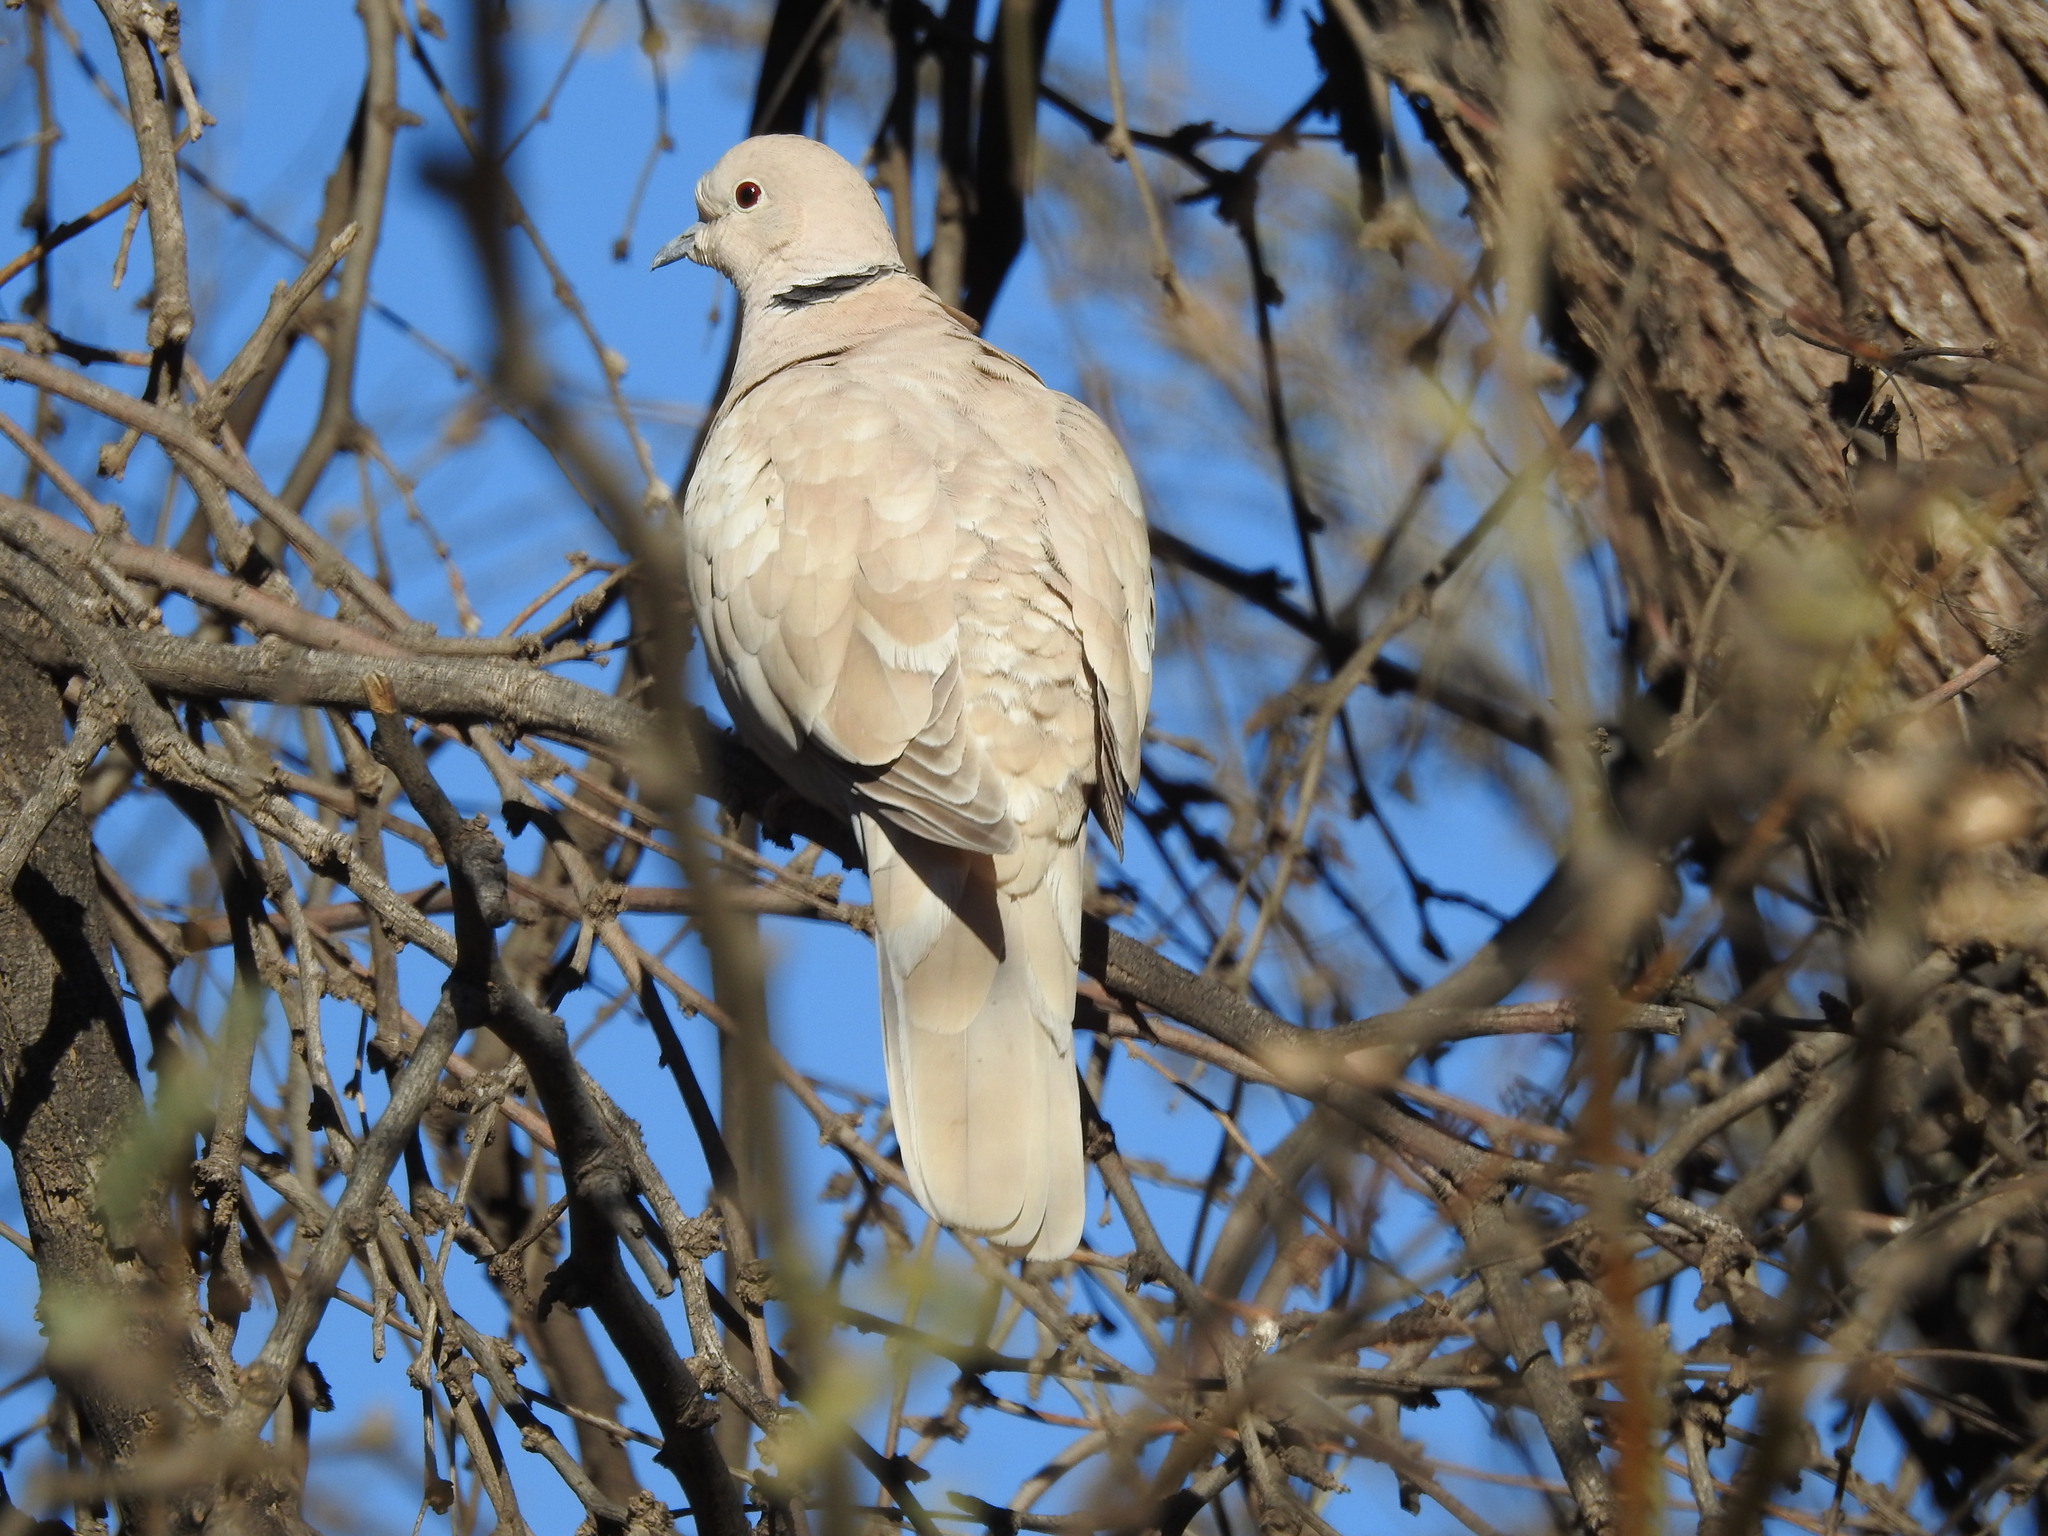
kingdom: Animalia
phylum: Chordata
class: Aves
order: Columbiformes
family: Columbidae
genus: Streptopelia
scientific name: Streptopelia decaocto
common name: Eurasian collared dove
